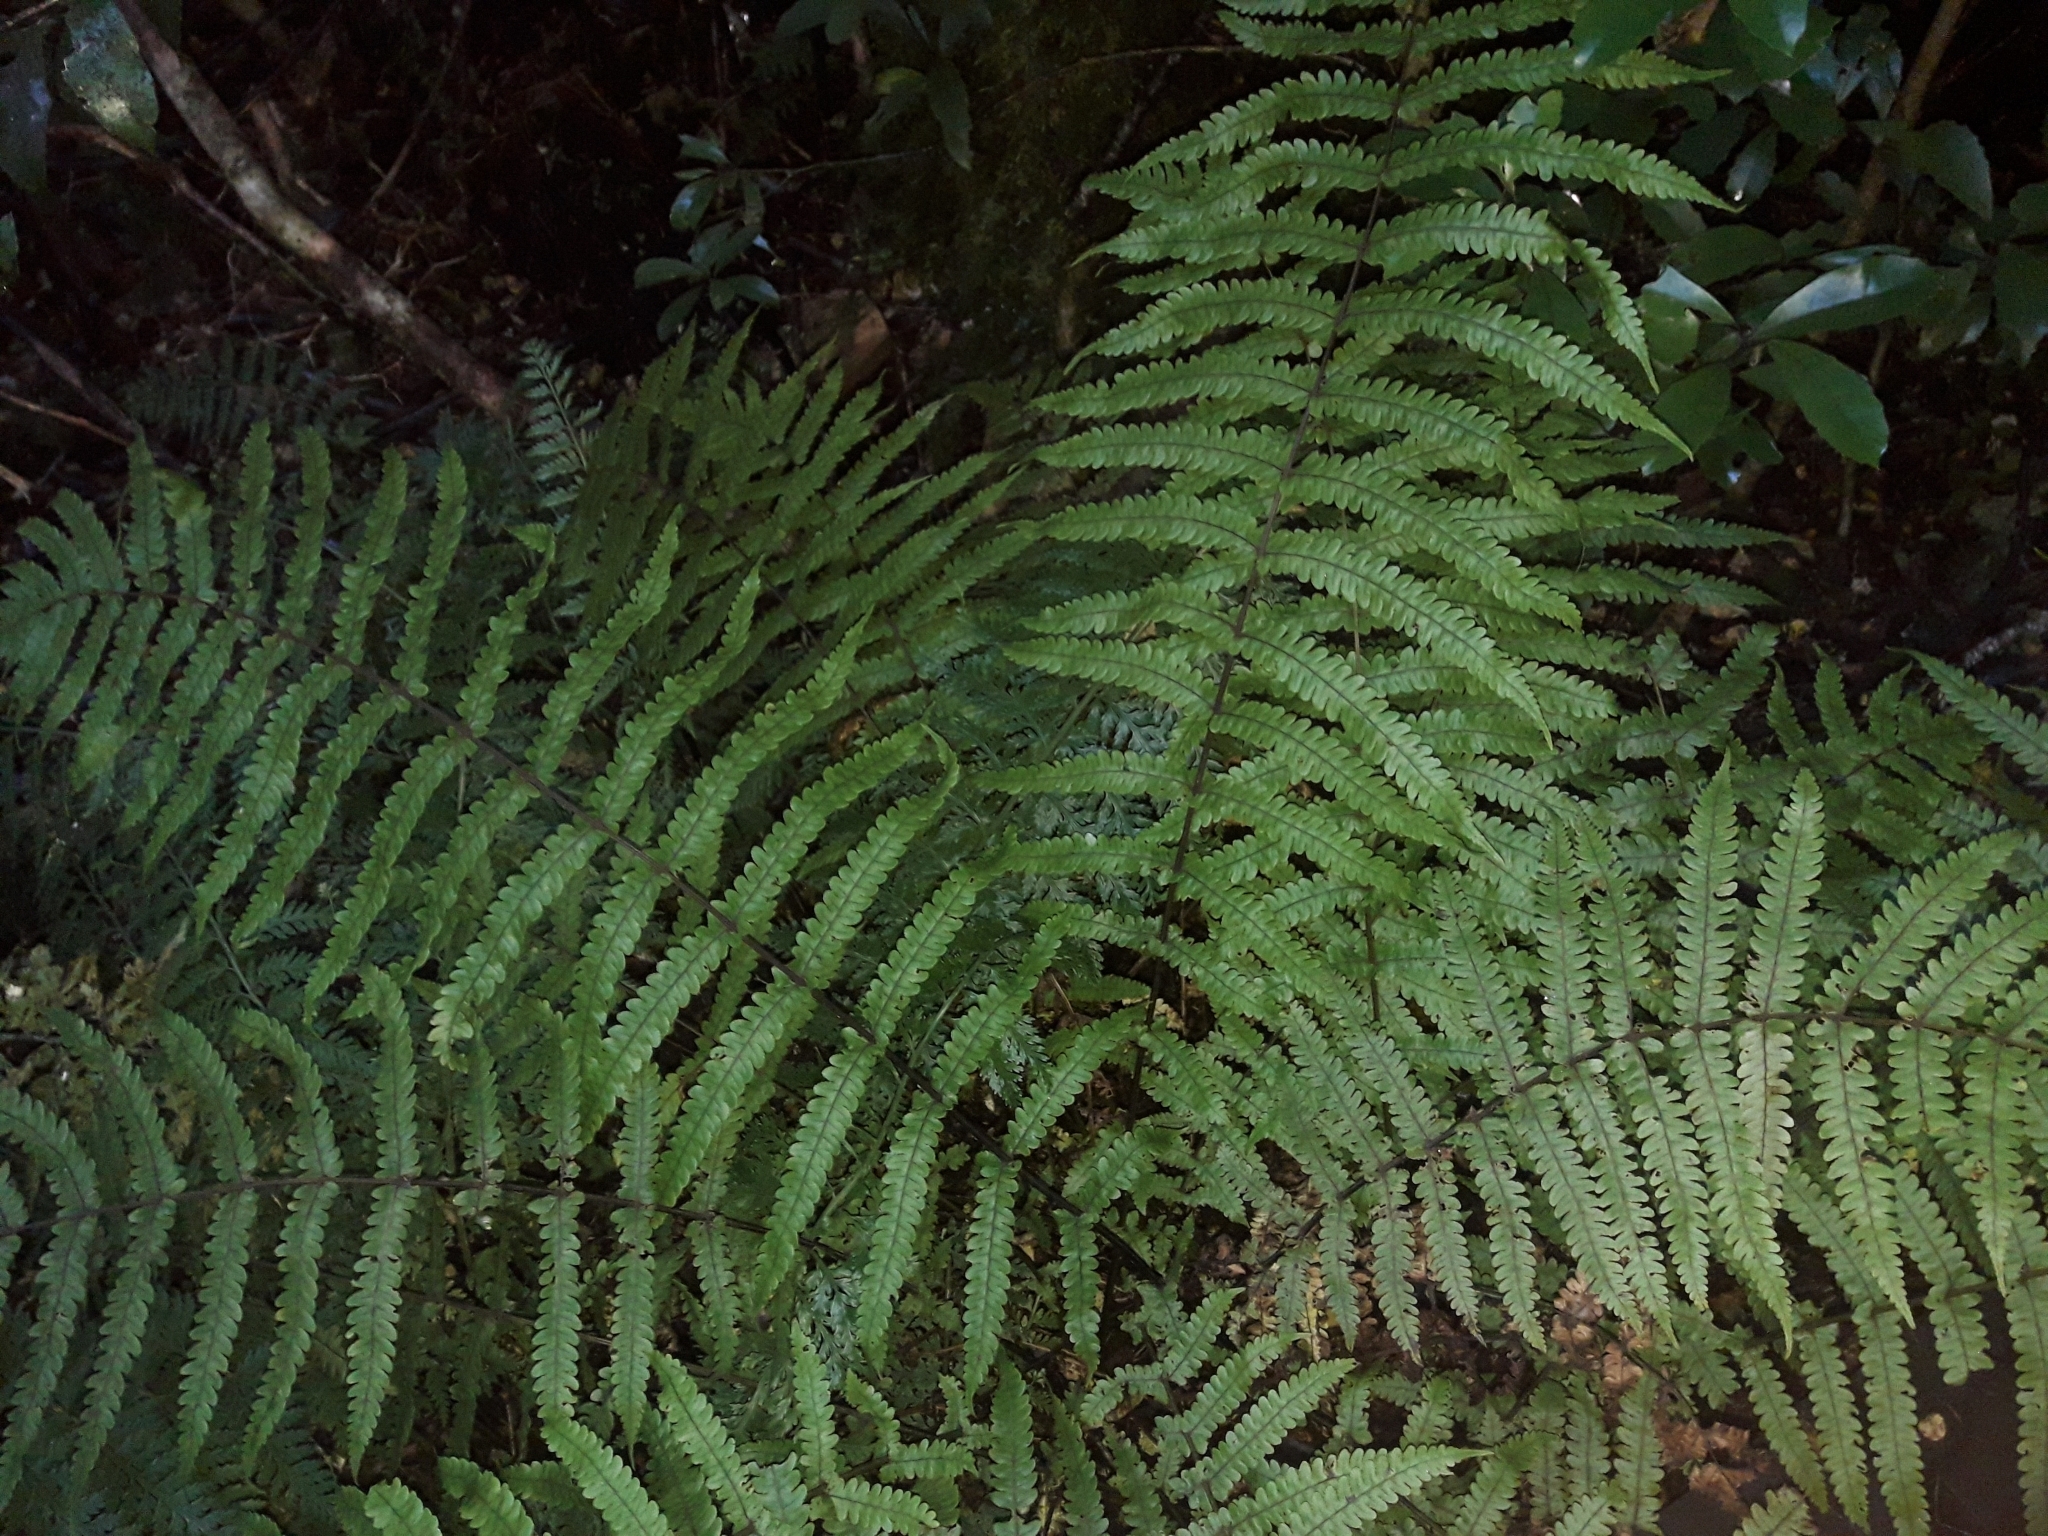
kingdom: Plantae
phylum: Tracheophyta
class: Polypodiopsida
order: Polypodiales
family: Thelypteridaceae
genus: Pakau
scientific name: Pakau pennigera
